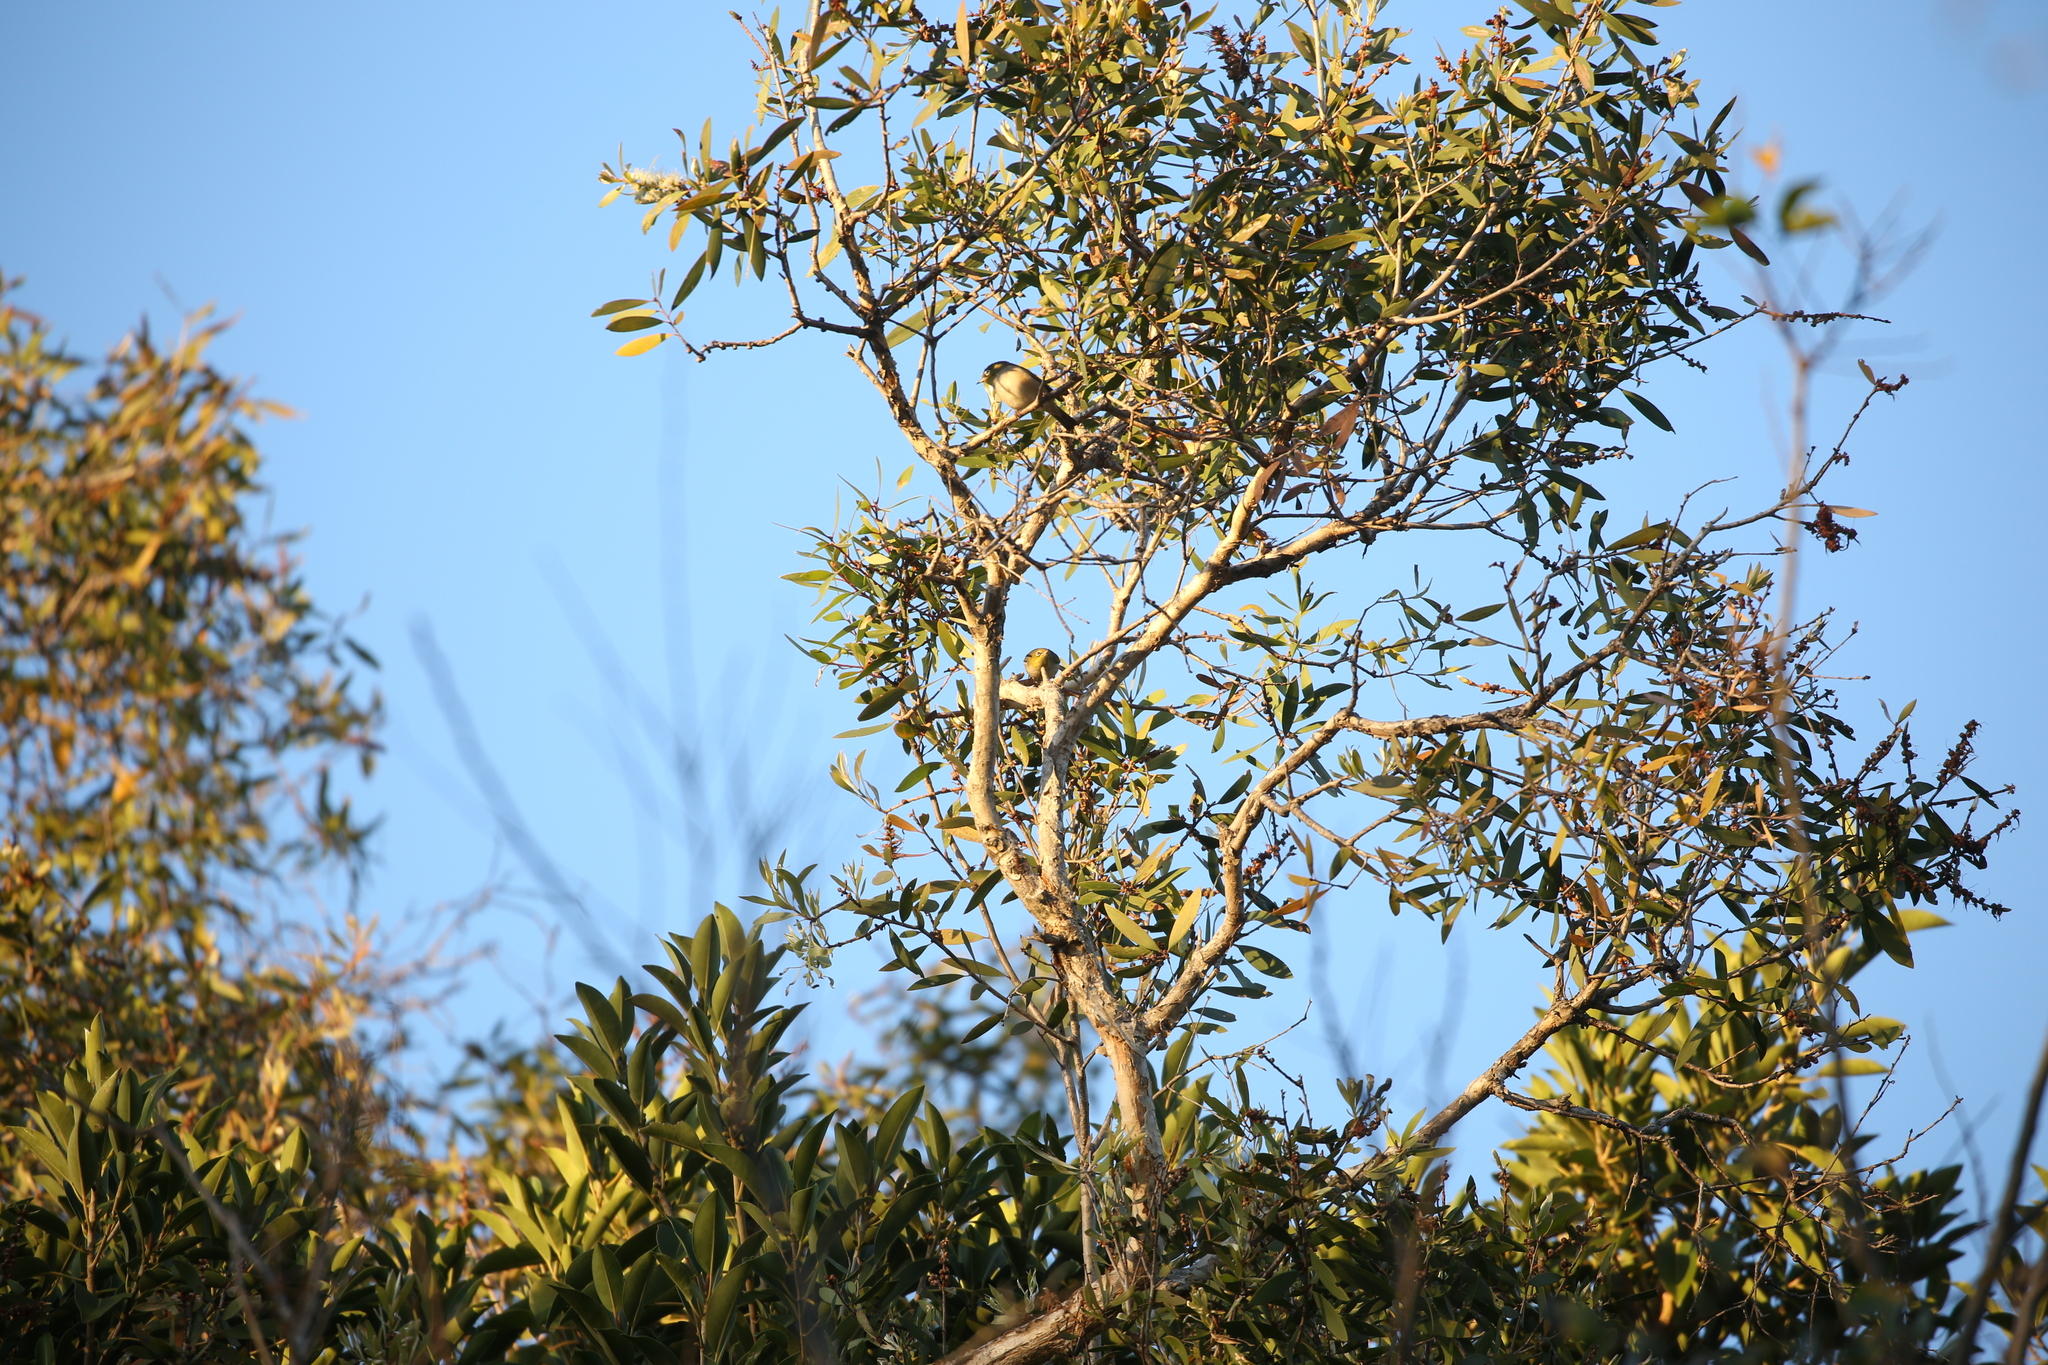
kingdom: Animalia
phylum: Chordata
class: Aves
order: Passeriformes
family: Zosteropidae
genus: Zosterops
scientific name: Zosterops lateralis
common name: Silvereye
